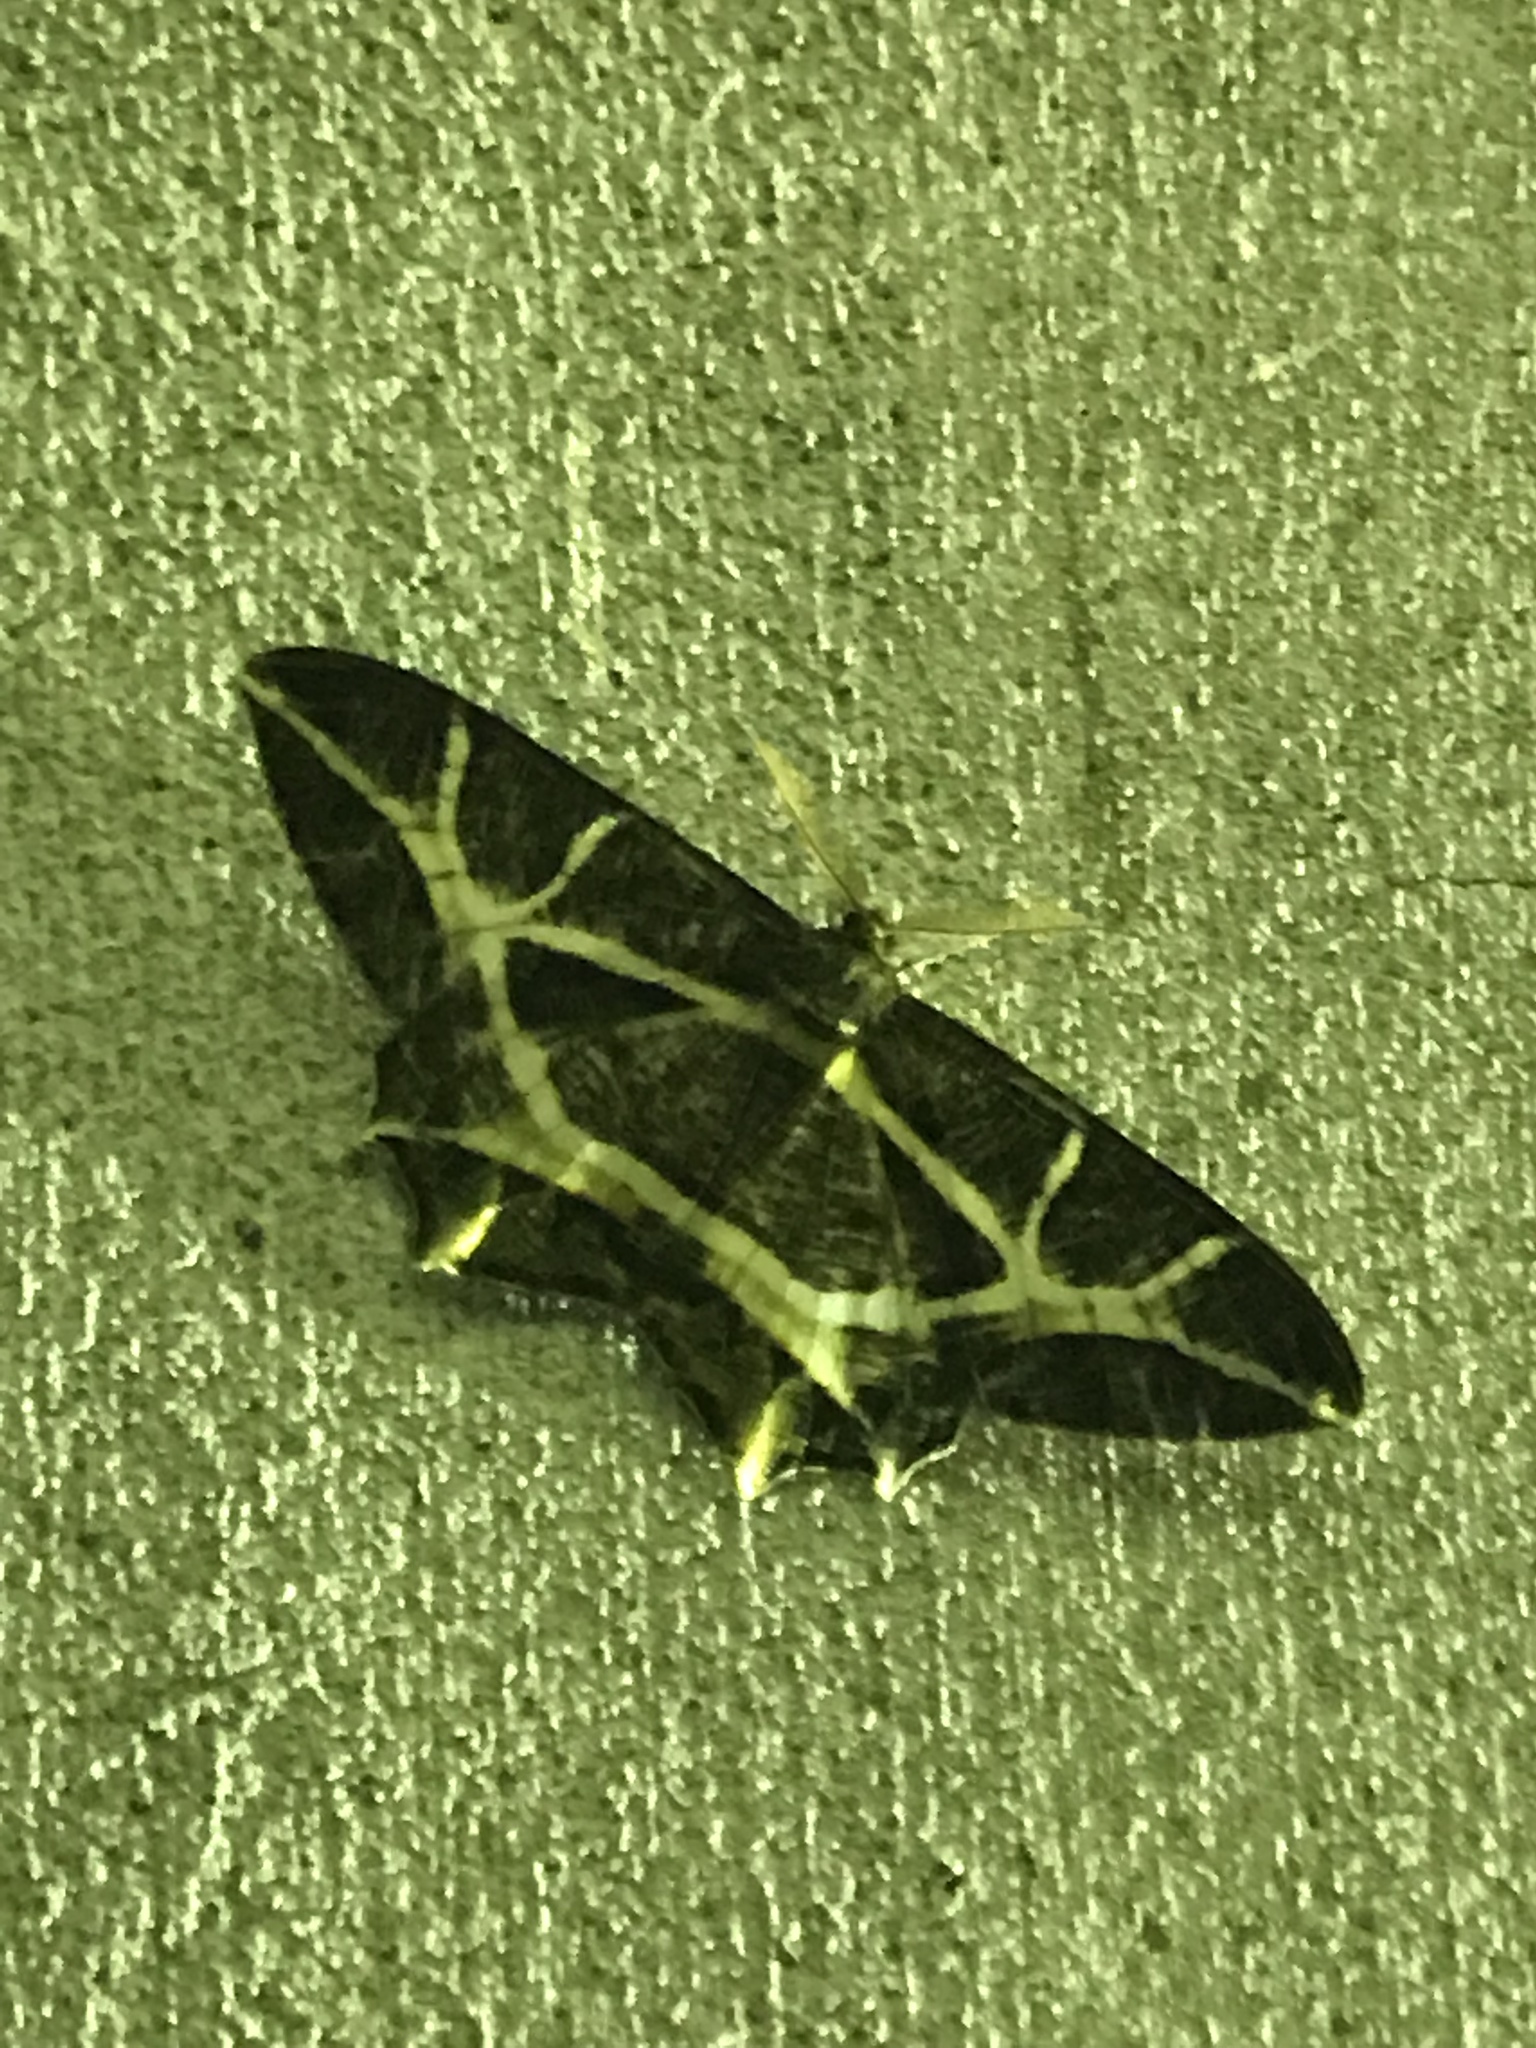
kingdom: Animalia
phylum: Arthropoda
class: Insecta
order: Lepidoptera
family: Geometridae
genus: Mesastrape
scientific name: Mesastrape fulguraria
